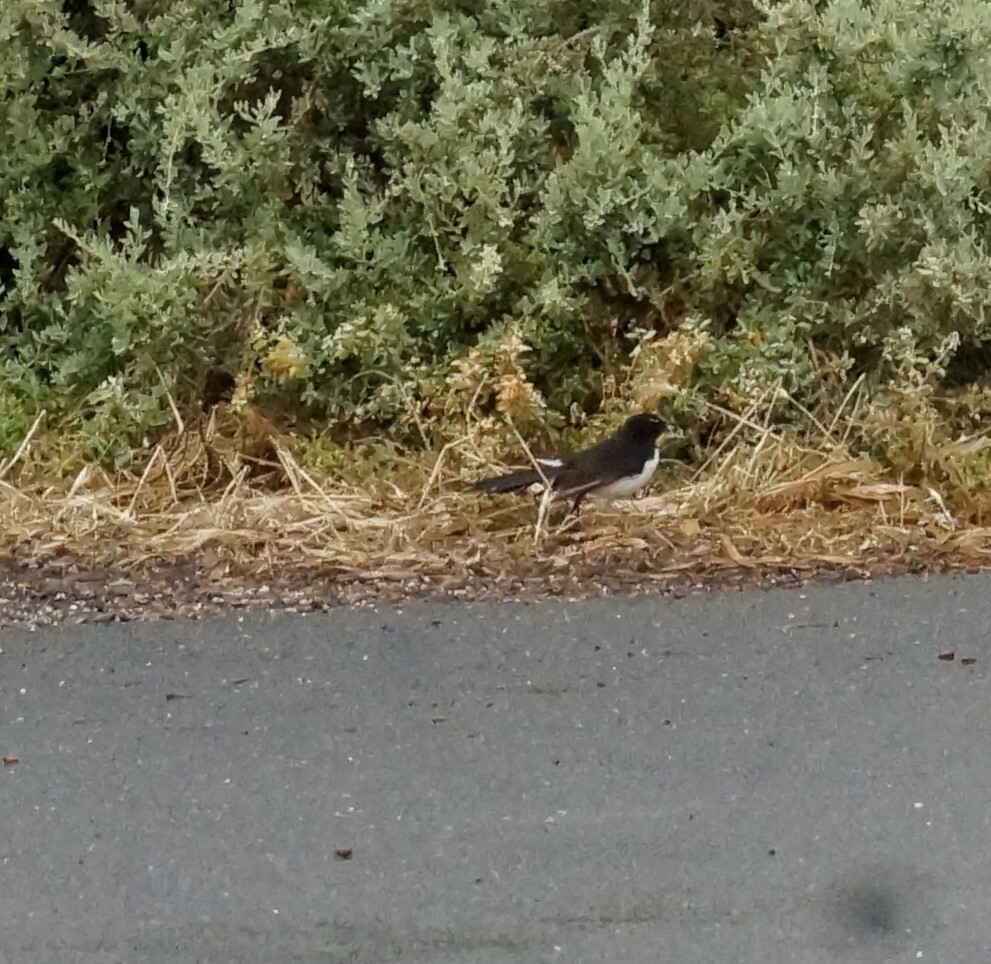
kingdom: Animalia
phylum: Chordata
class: Aves
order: Passeriformes
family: Rhipiduridae
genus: Rhipidura
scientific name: Rhipidura leucophrys
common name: Willie wagtail
